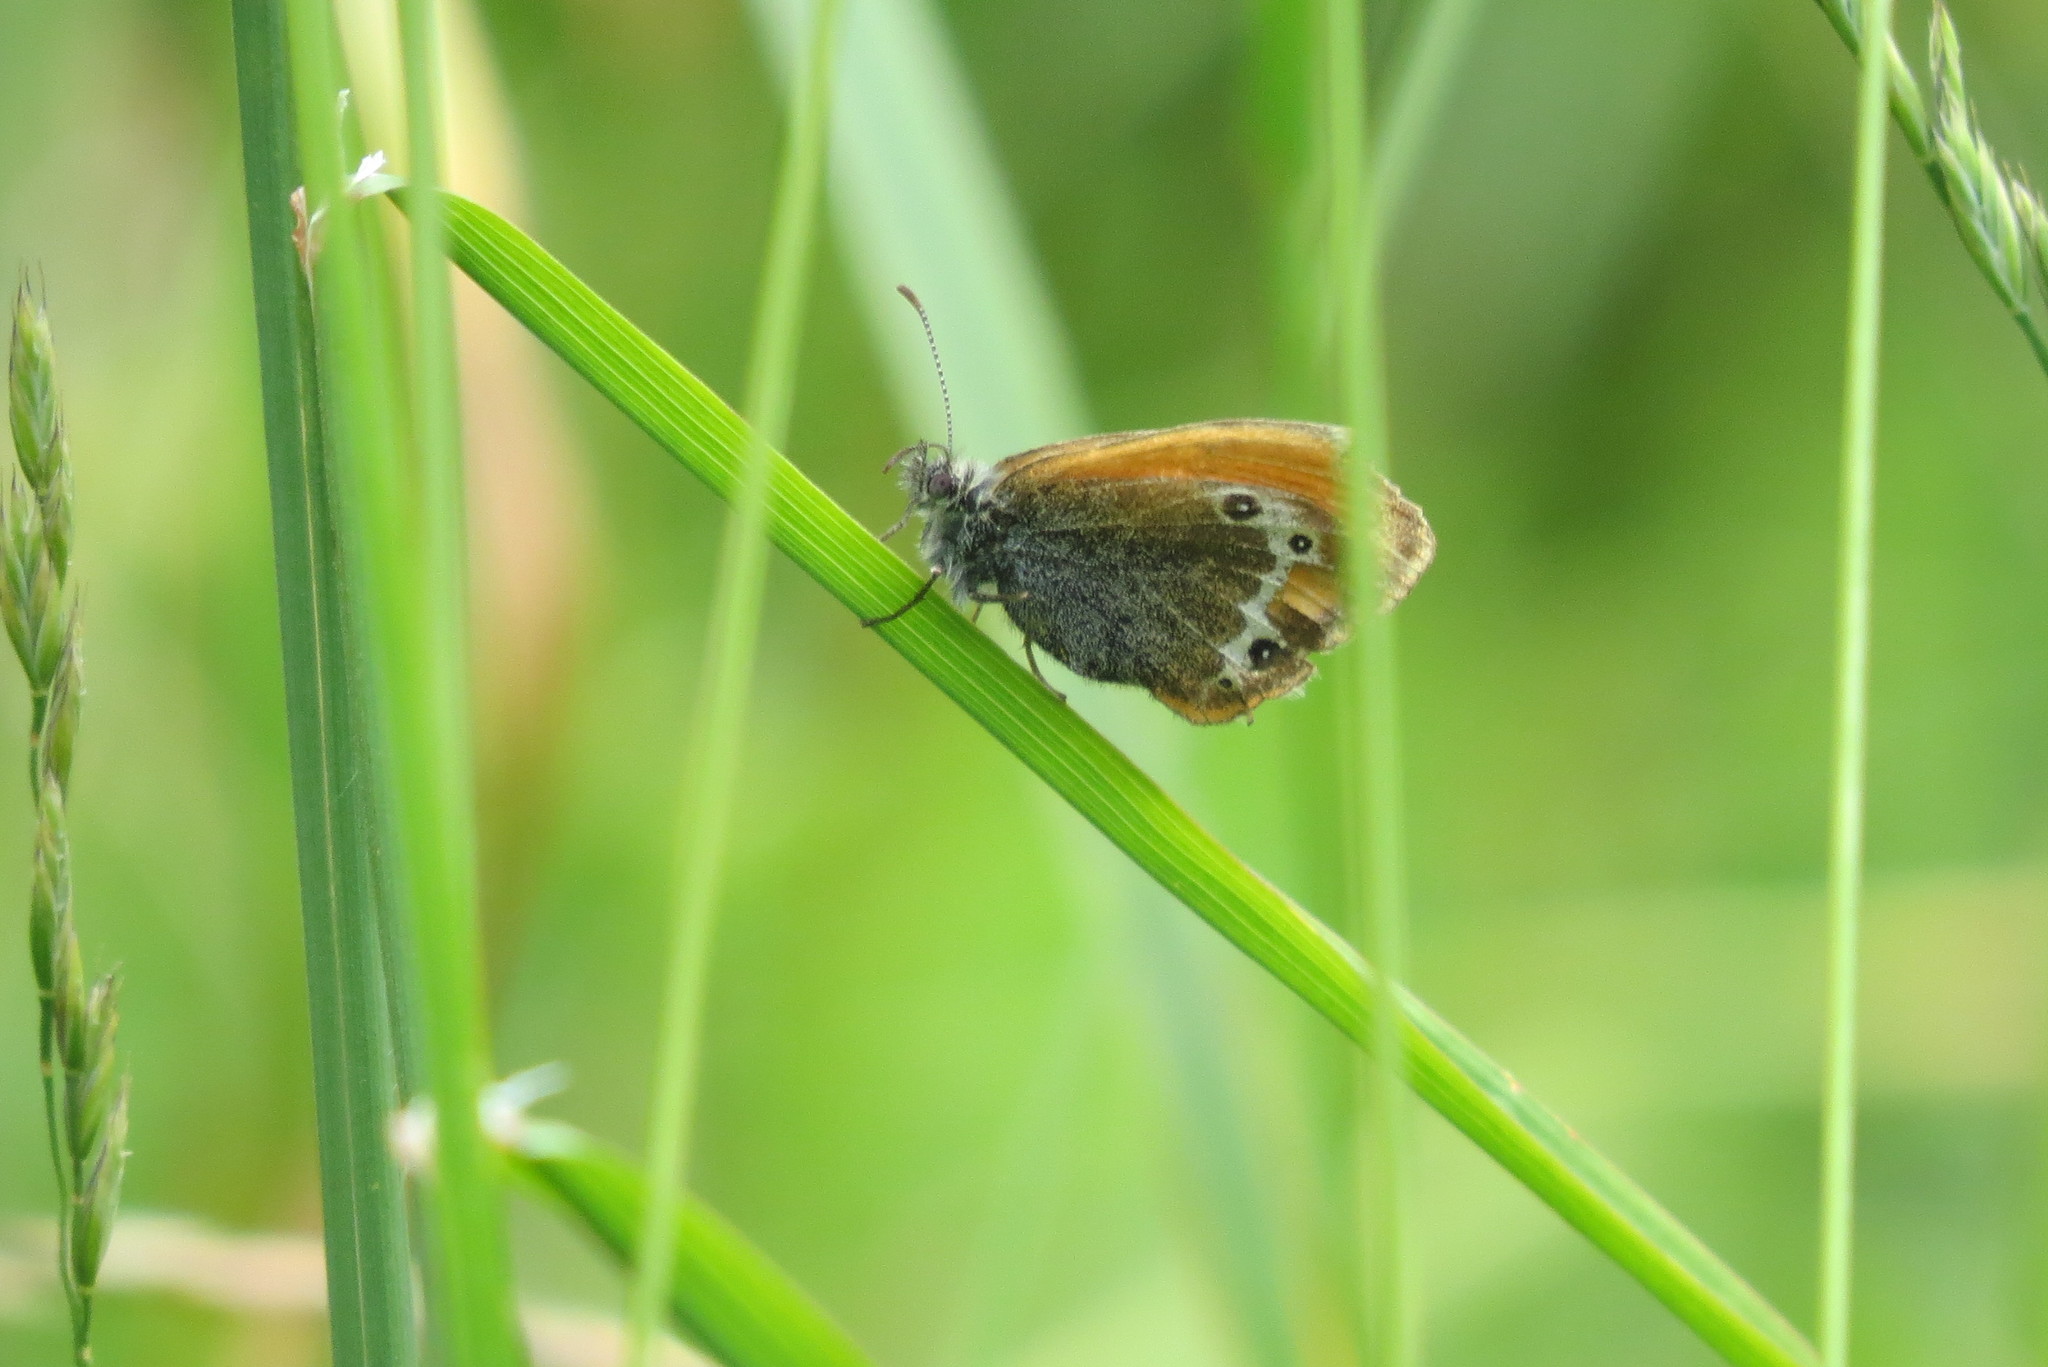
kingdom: Animalia
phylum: Arthropoda
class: Insecta
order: Lepidoptera
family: Nymphalidae
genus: Coenonympha
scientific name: Coenonympha
